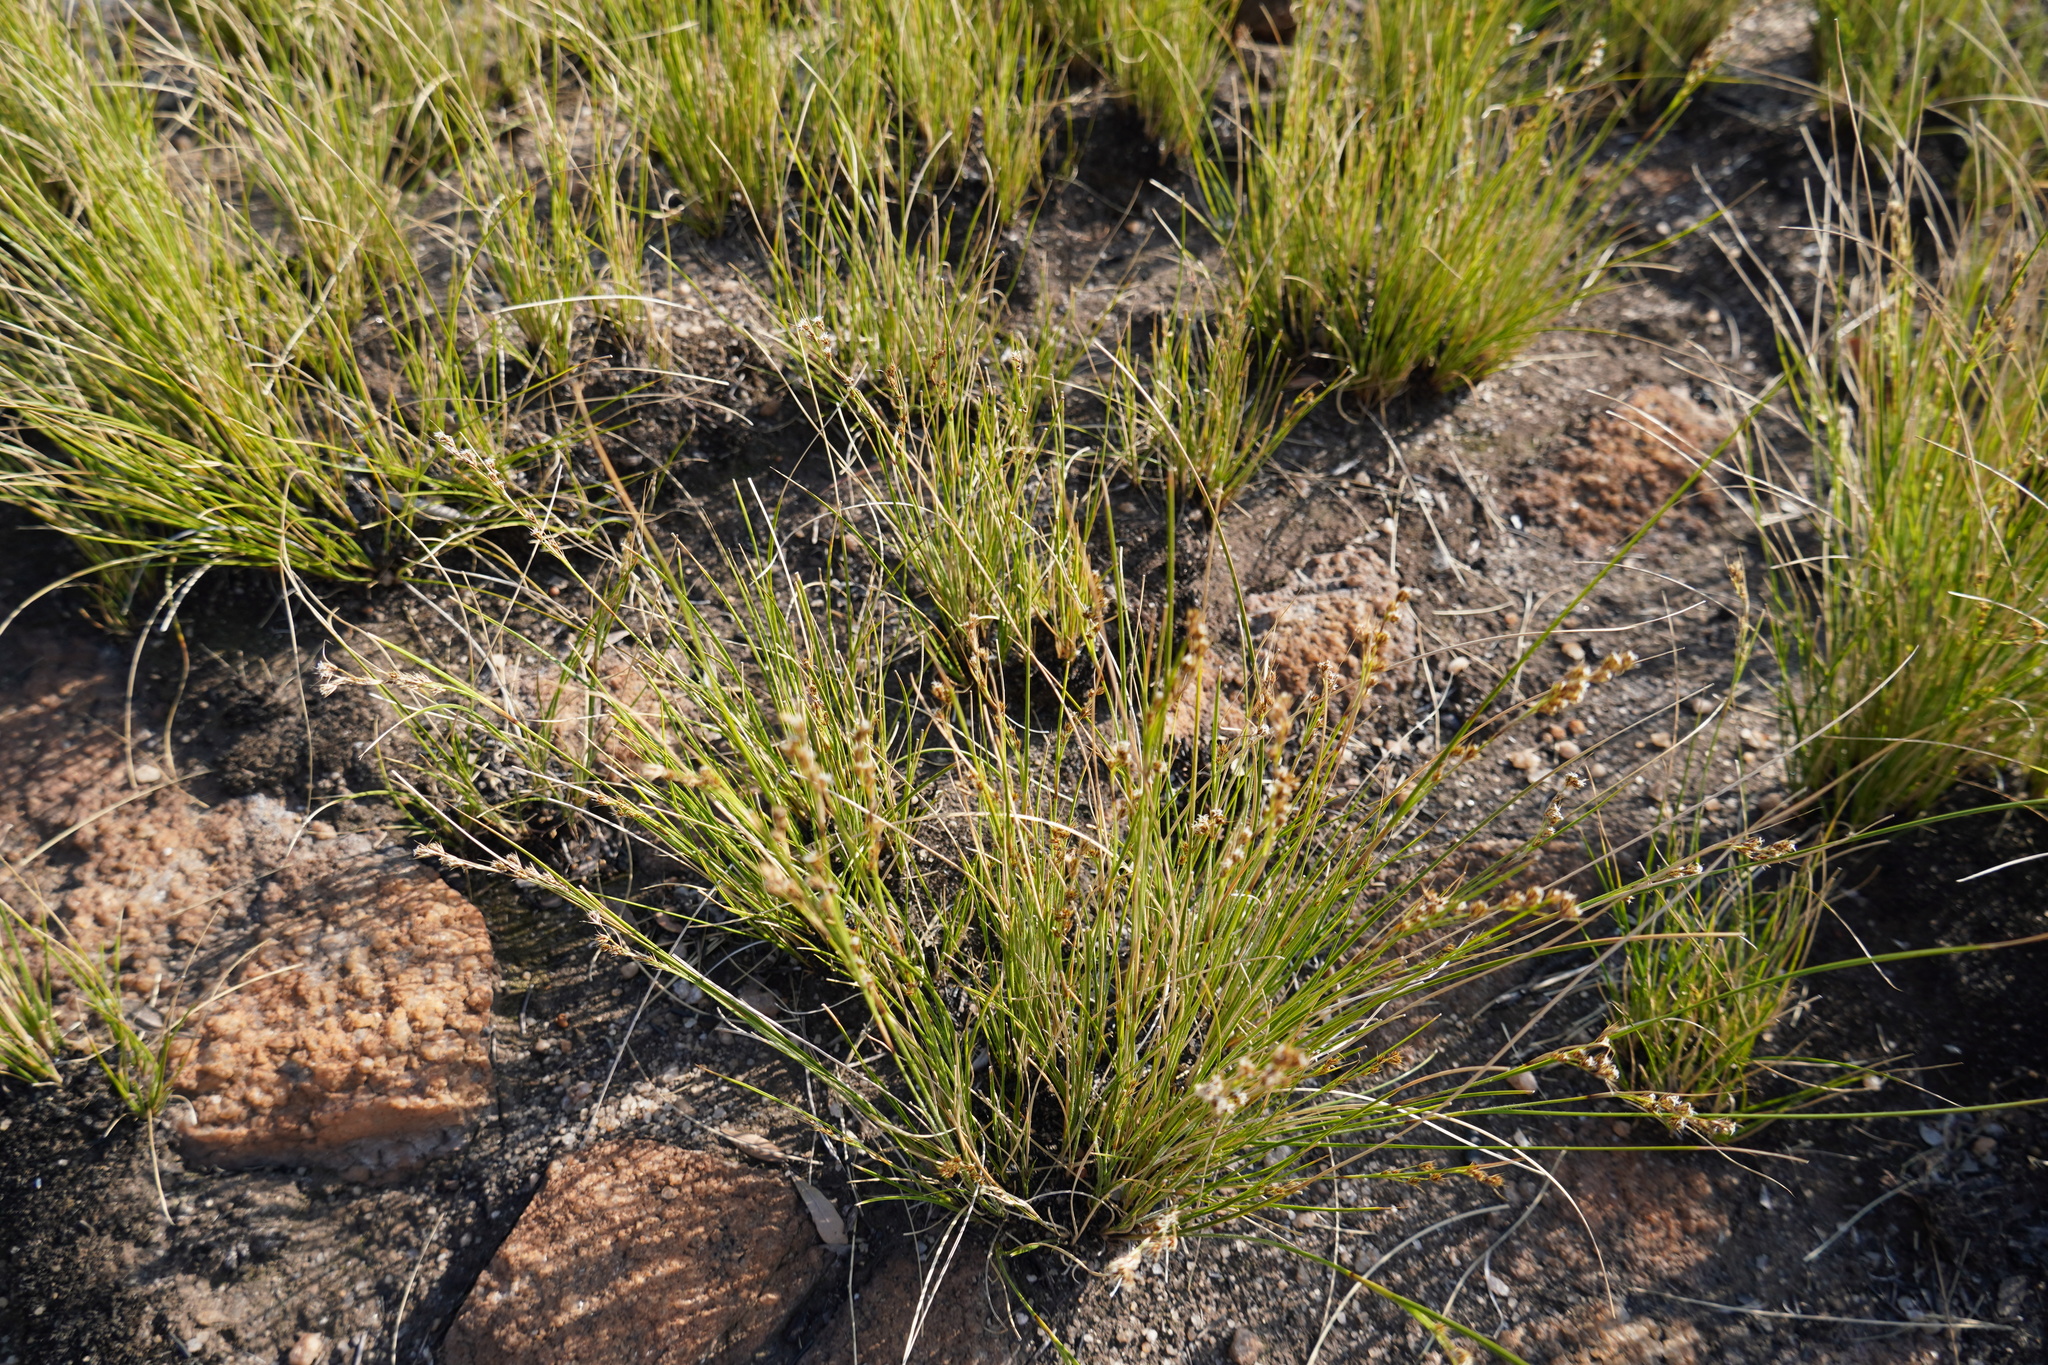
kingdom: Plantae
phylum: Tracheophyta
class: Liliopsida
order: Poales
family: Cyperaceae
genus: Coleochloa
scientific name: Coleochloa setifera
